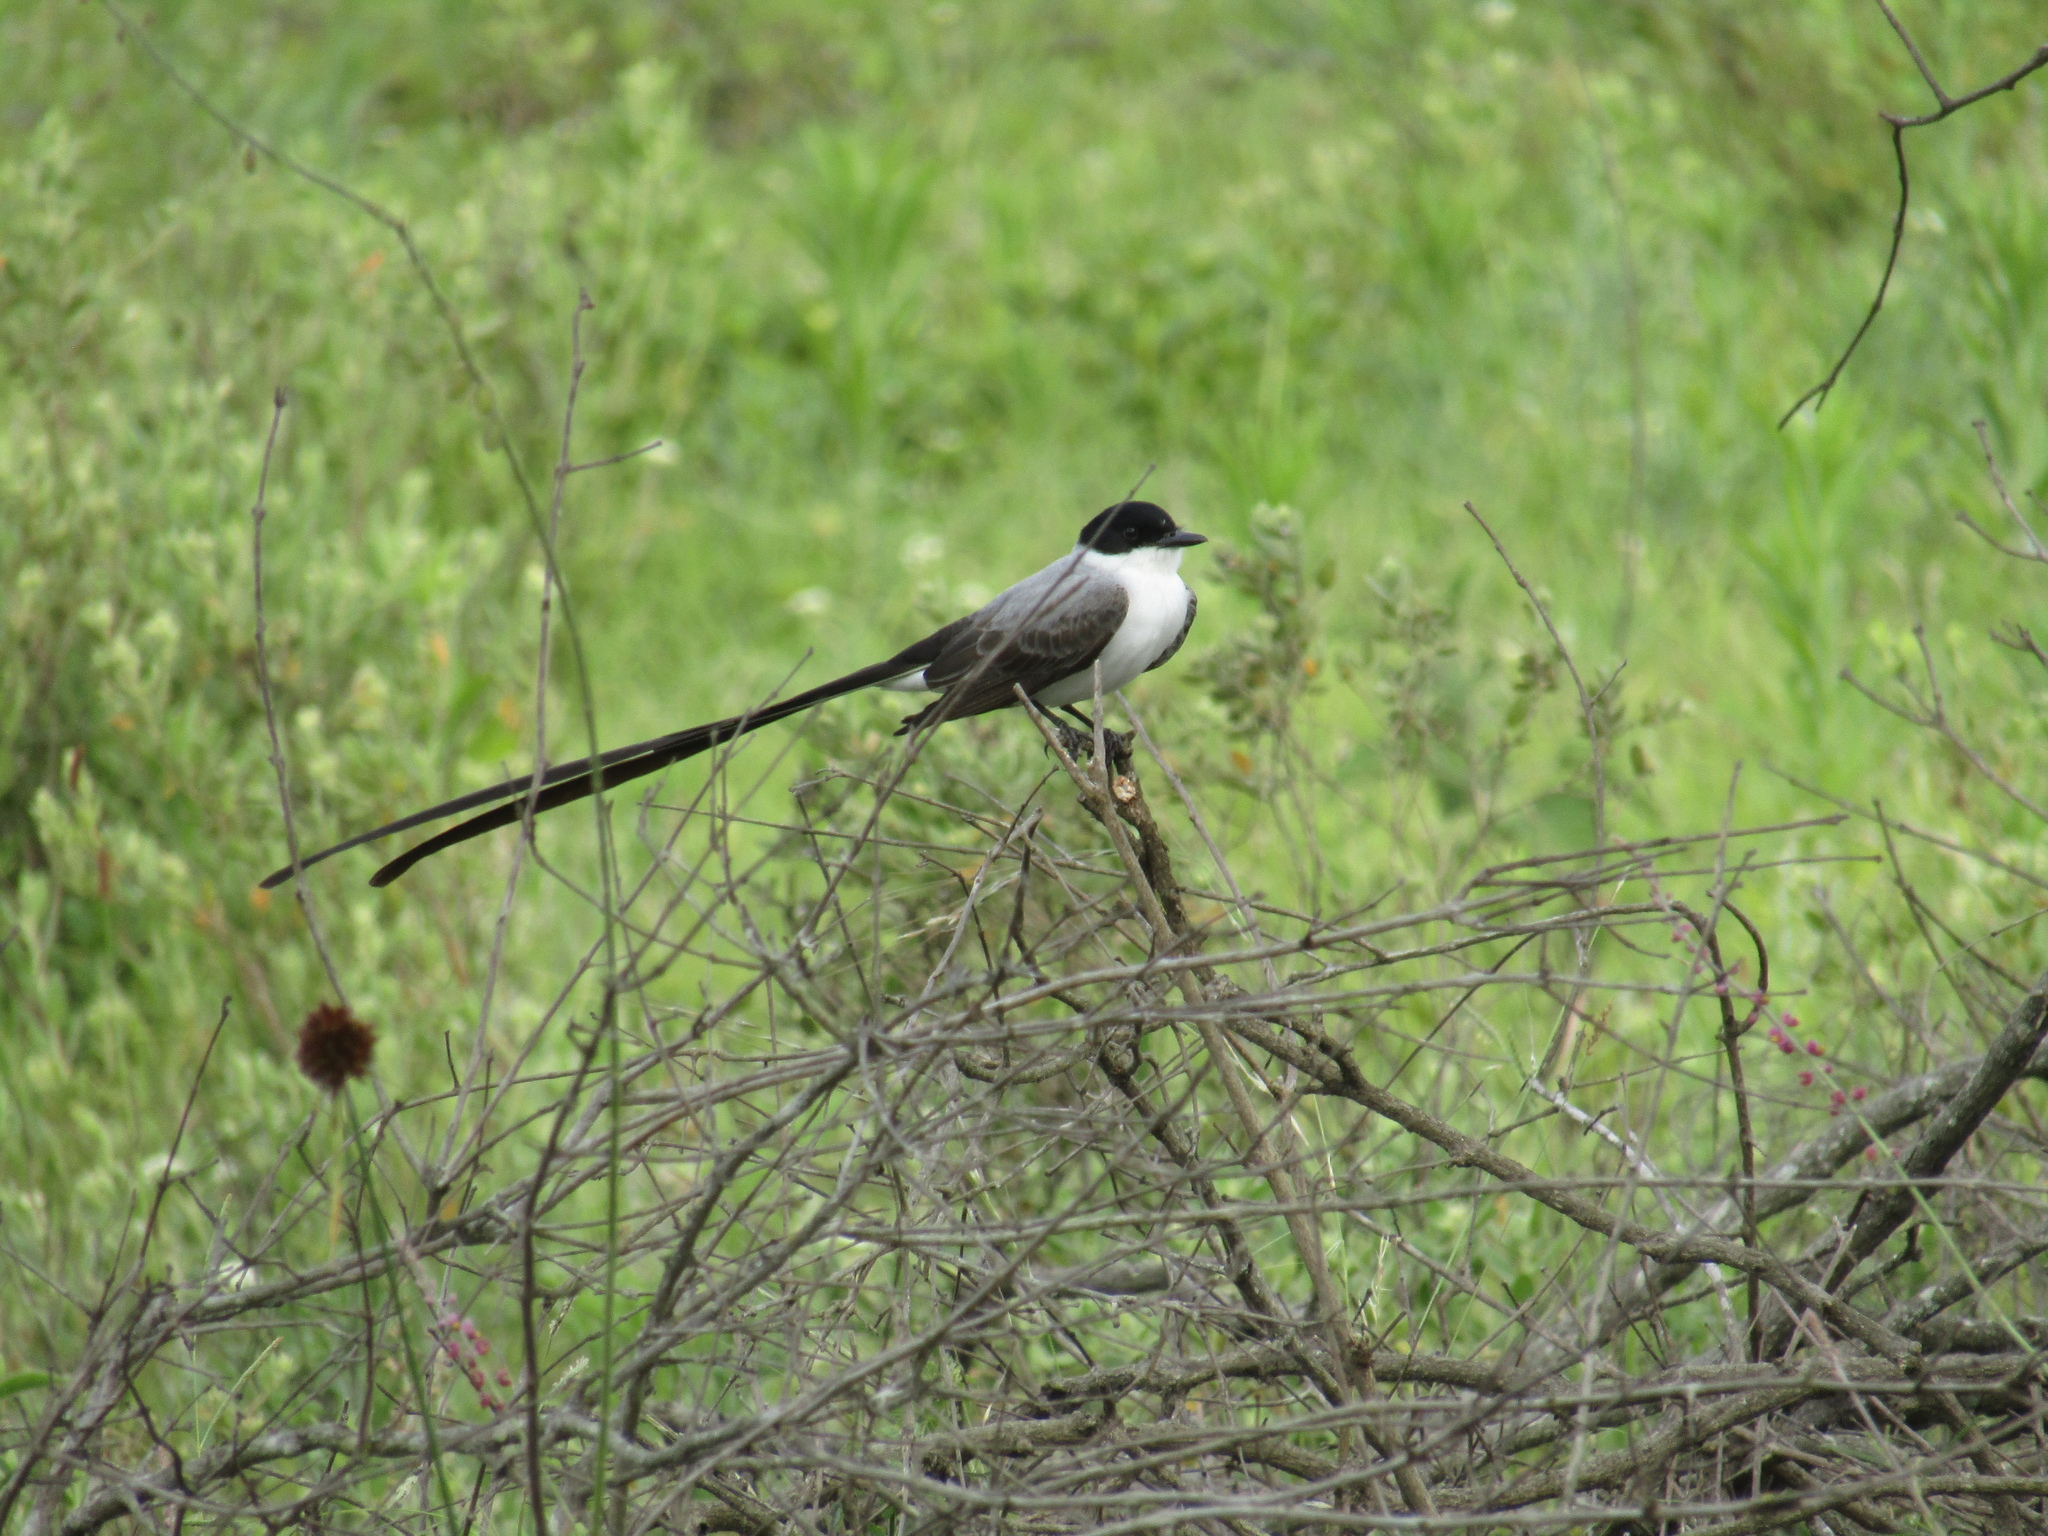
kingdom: Animalia
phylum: Chordata
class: Aves
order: Passeriformes
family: Tyrannidae
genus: Tyrannus
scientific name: Tyrannus savana
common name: Fork-tailed flycatcher
